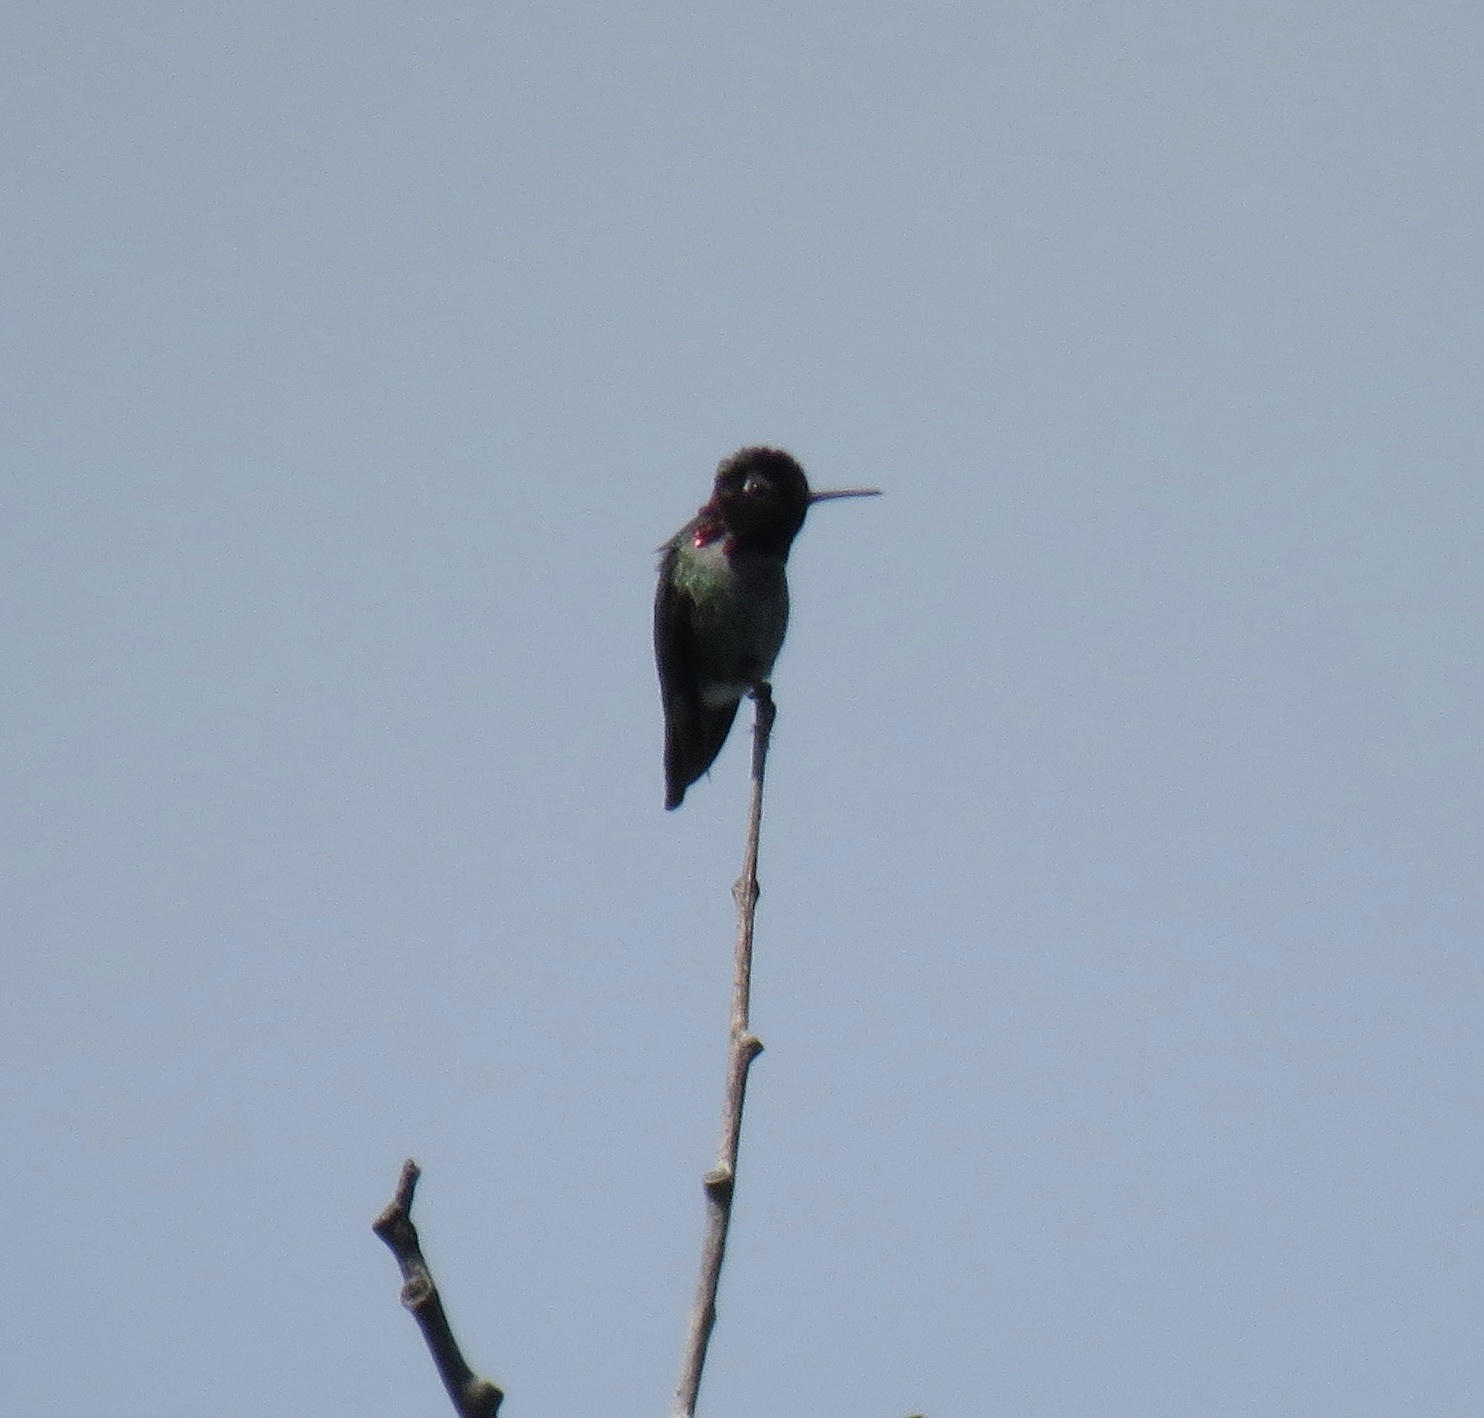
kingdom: Animalia
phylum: Chordata
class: Aves
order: Apodiformes
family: Trochilidae
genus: Calypte
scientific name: Calypte anna
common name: Anna's hummingbird
